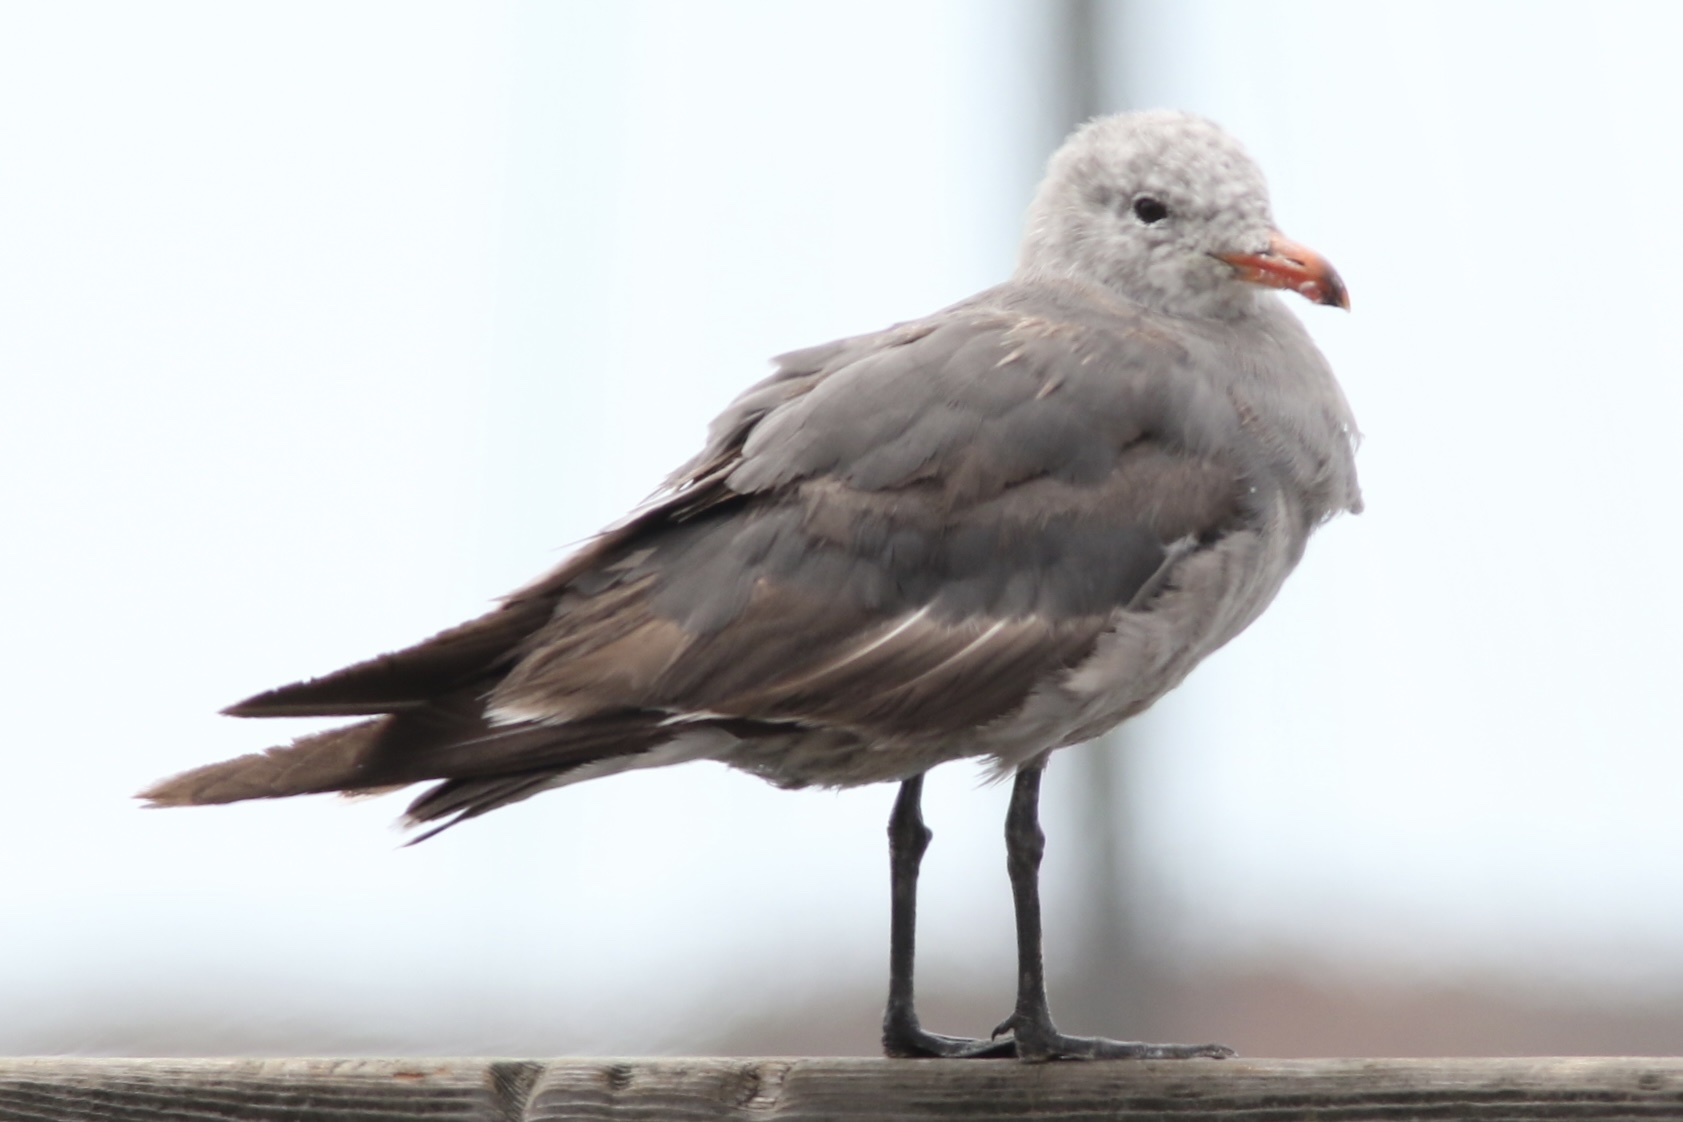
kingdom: Animalia
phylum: Chordata
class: Aves
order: Charadriiformes
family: Laridae
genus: Larus
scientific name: Larus heermanni
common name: Heermann's gull
